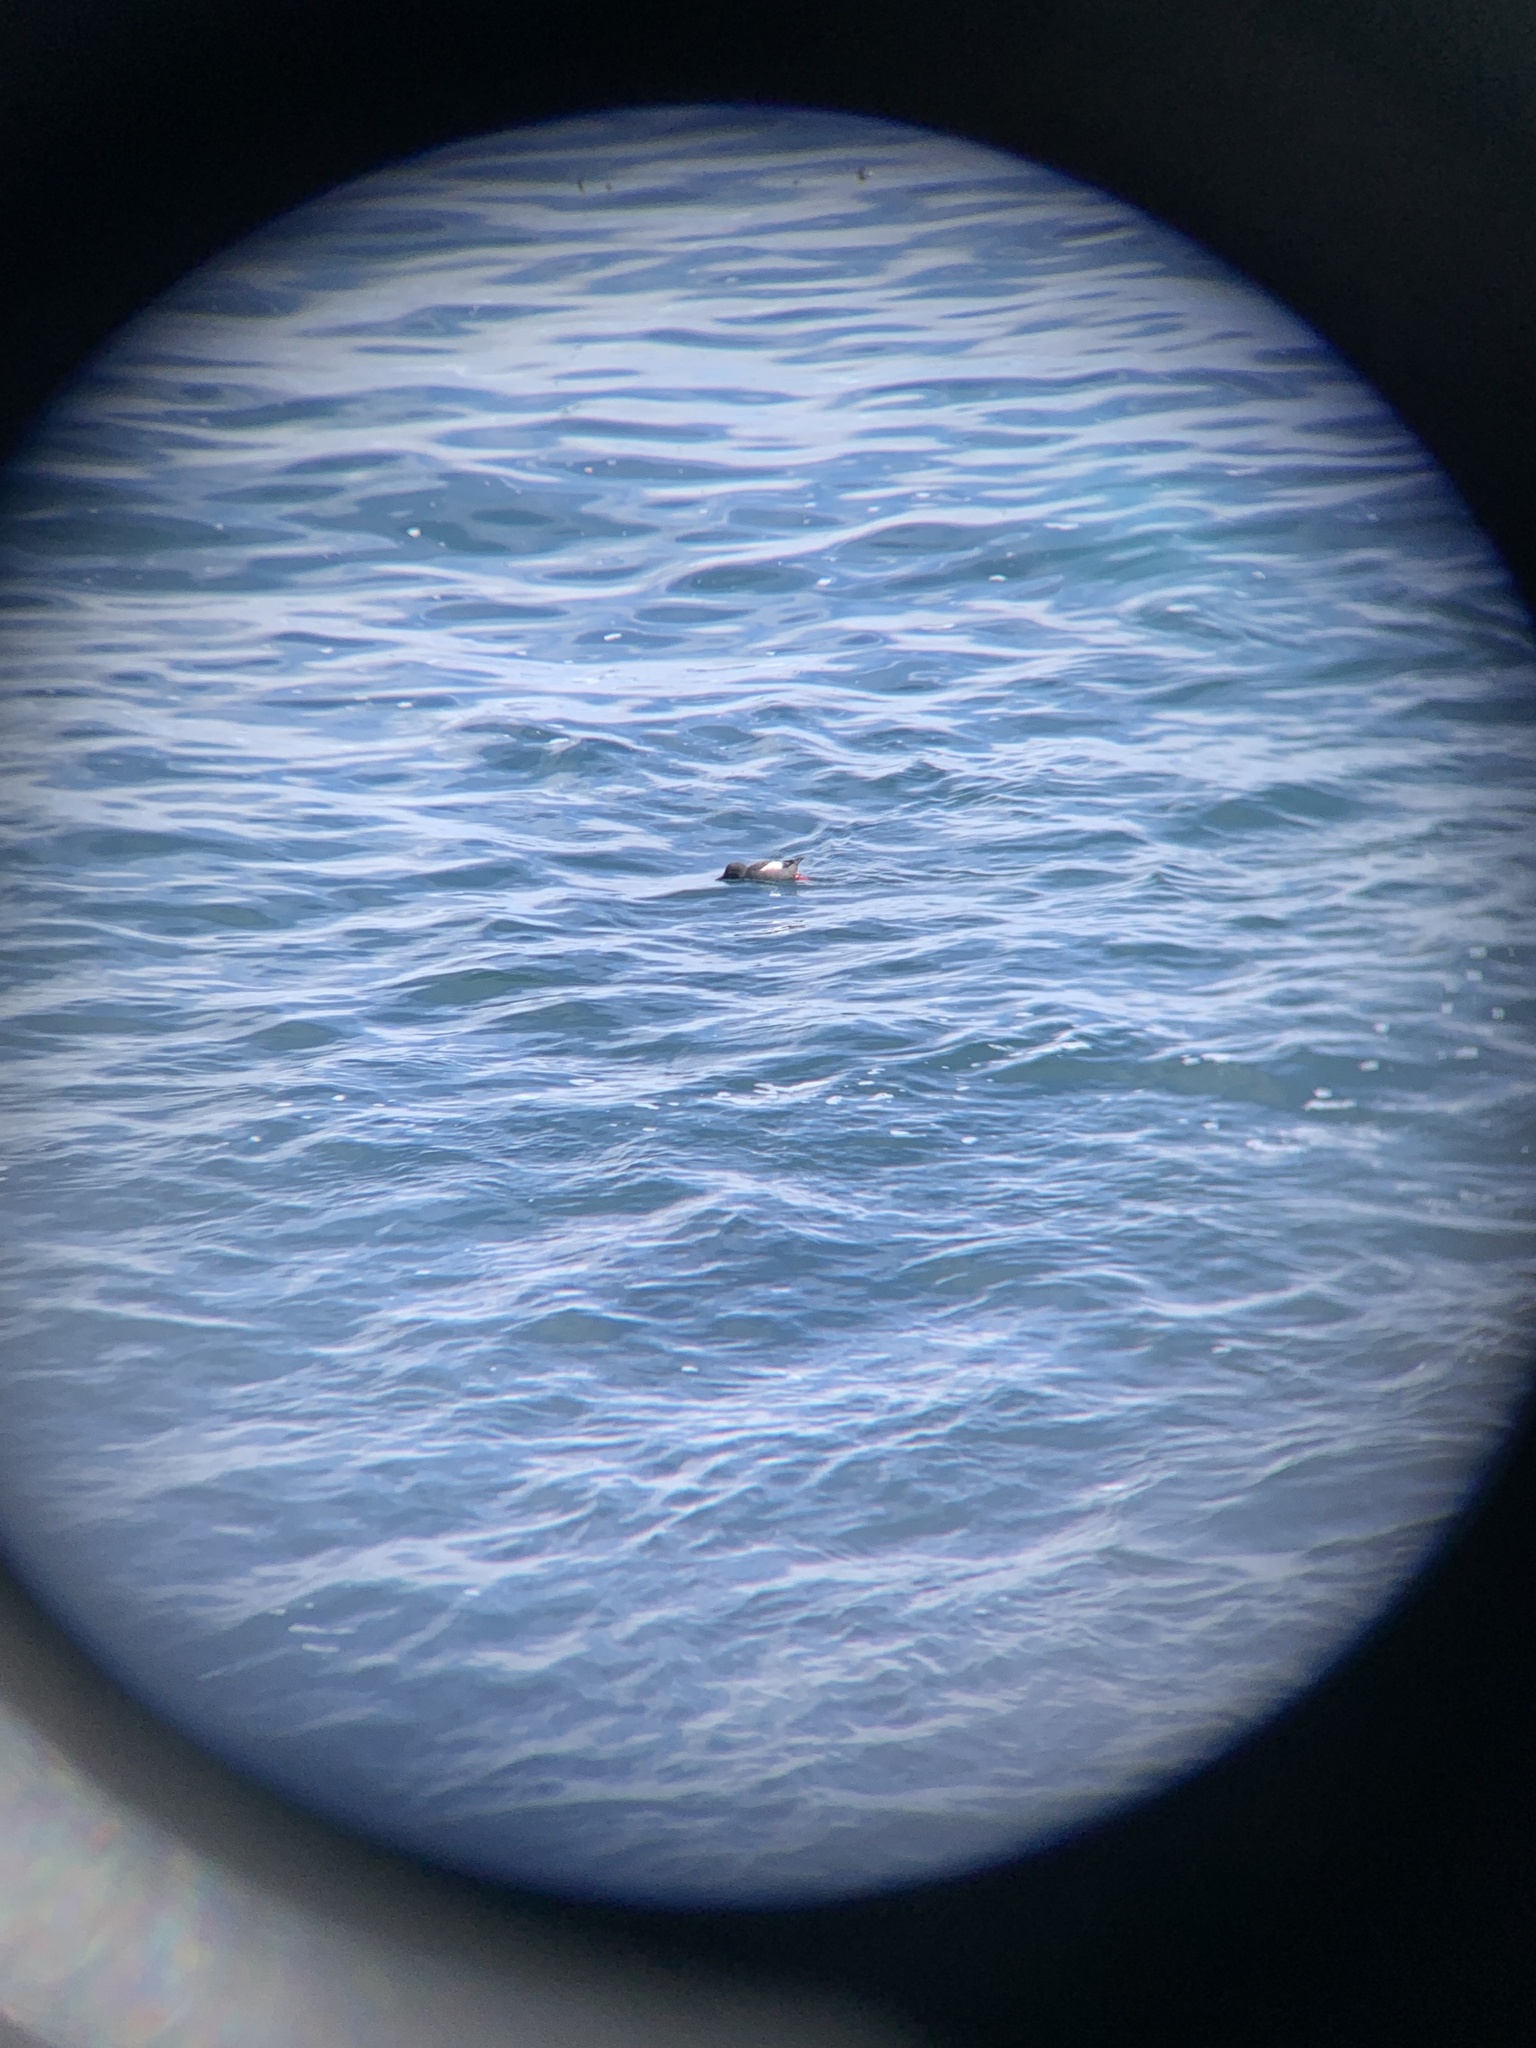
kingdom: Animalia
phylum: Chordata
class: Aves
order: Charadriiformes
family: Alcidae
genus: Cepphus
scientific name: Cepphus columba
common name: Pigeon guillemot
